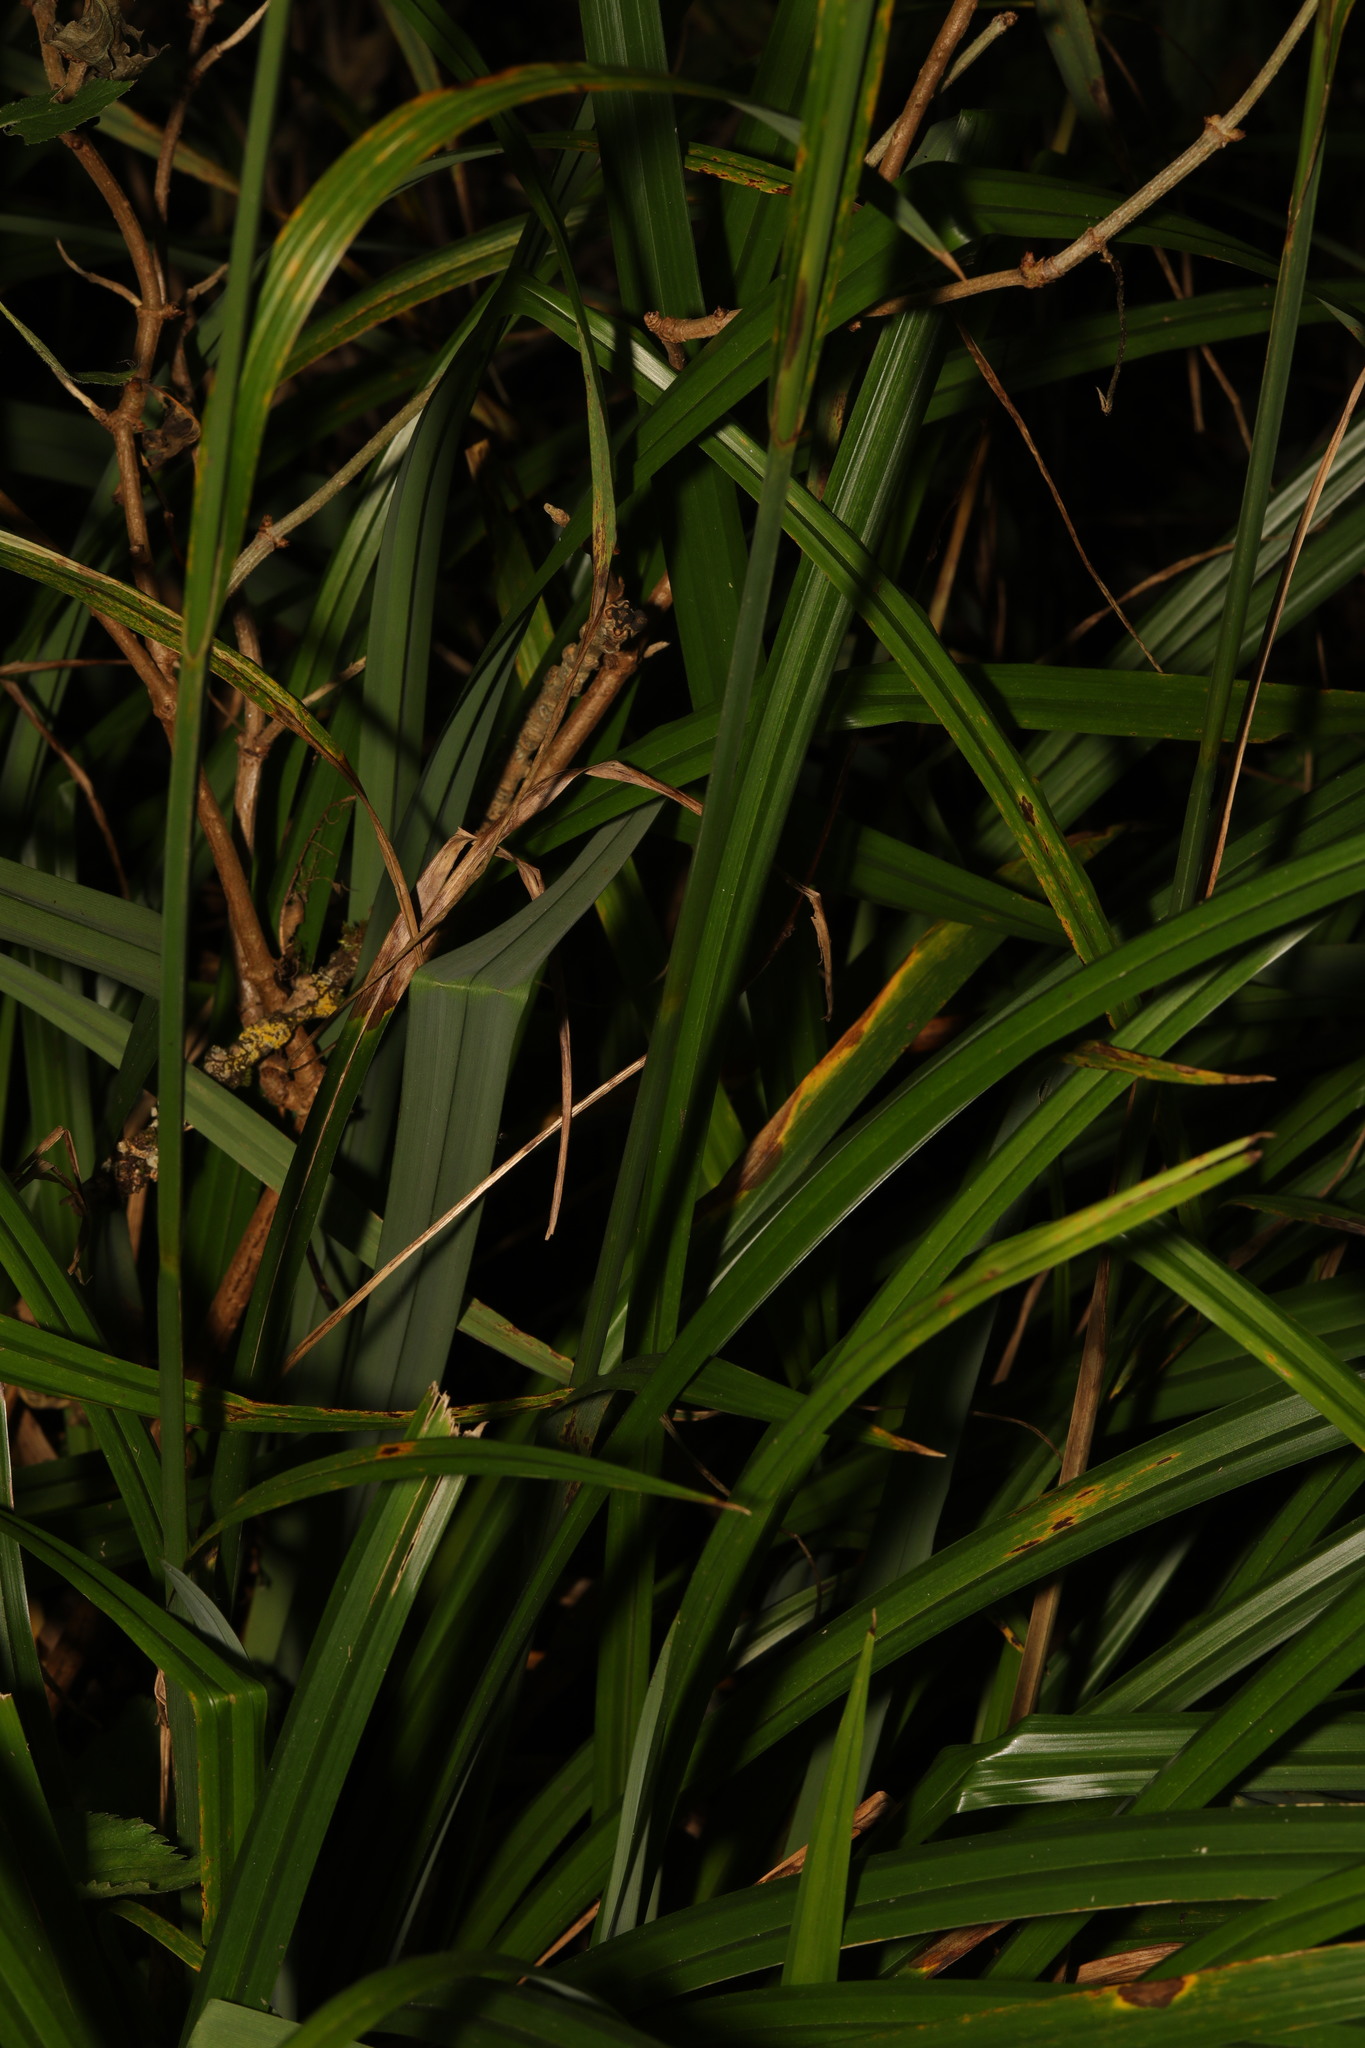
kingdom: Plantae
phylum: Tracheophyta
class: Liliopsida
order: Poales
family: Cyperaceae
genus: Carex
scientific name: Carex pendula
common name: Pendulous sedge
